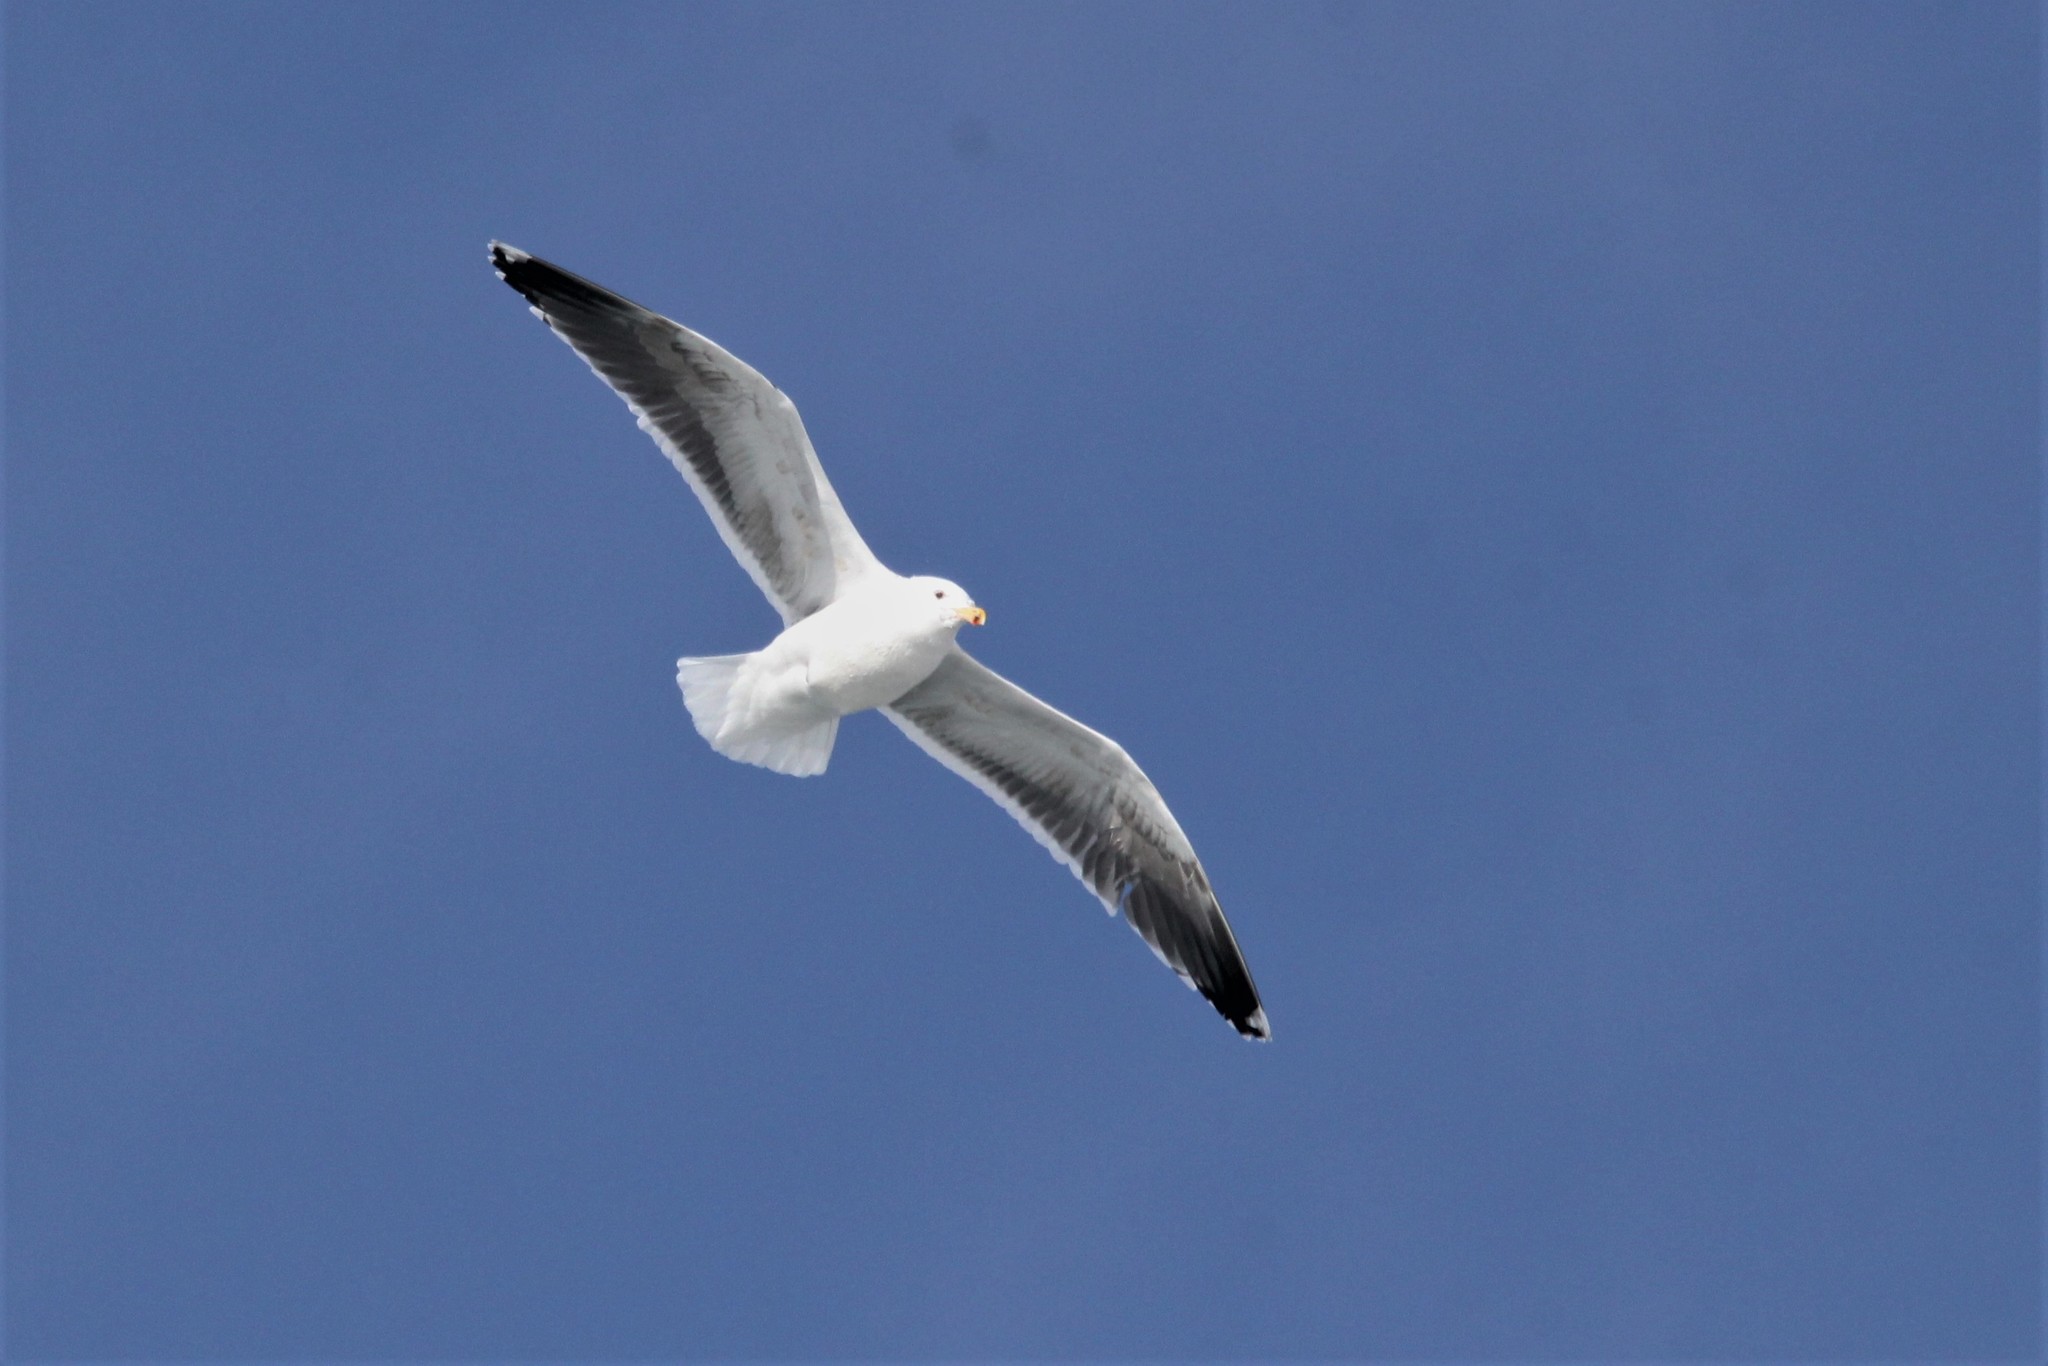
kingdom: Animalia
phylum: Chordata
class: Aves
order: Charadriiformes
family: Laridae
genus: Larus
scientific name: Larus marinus
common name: Great black-backed gull
